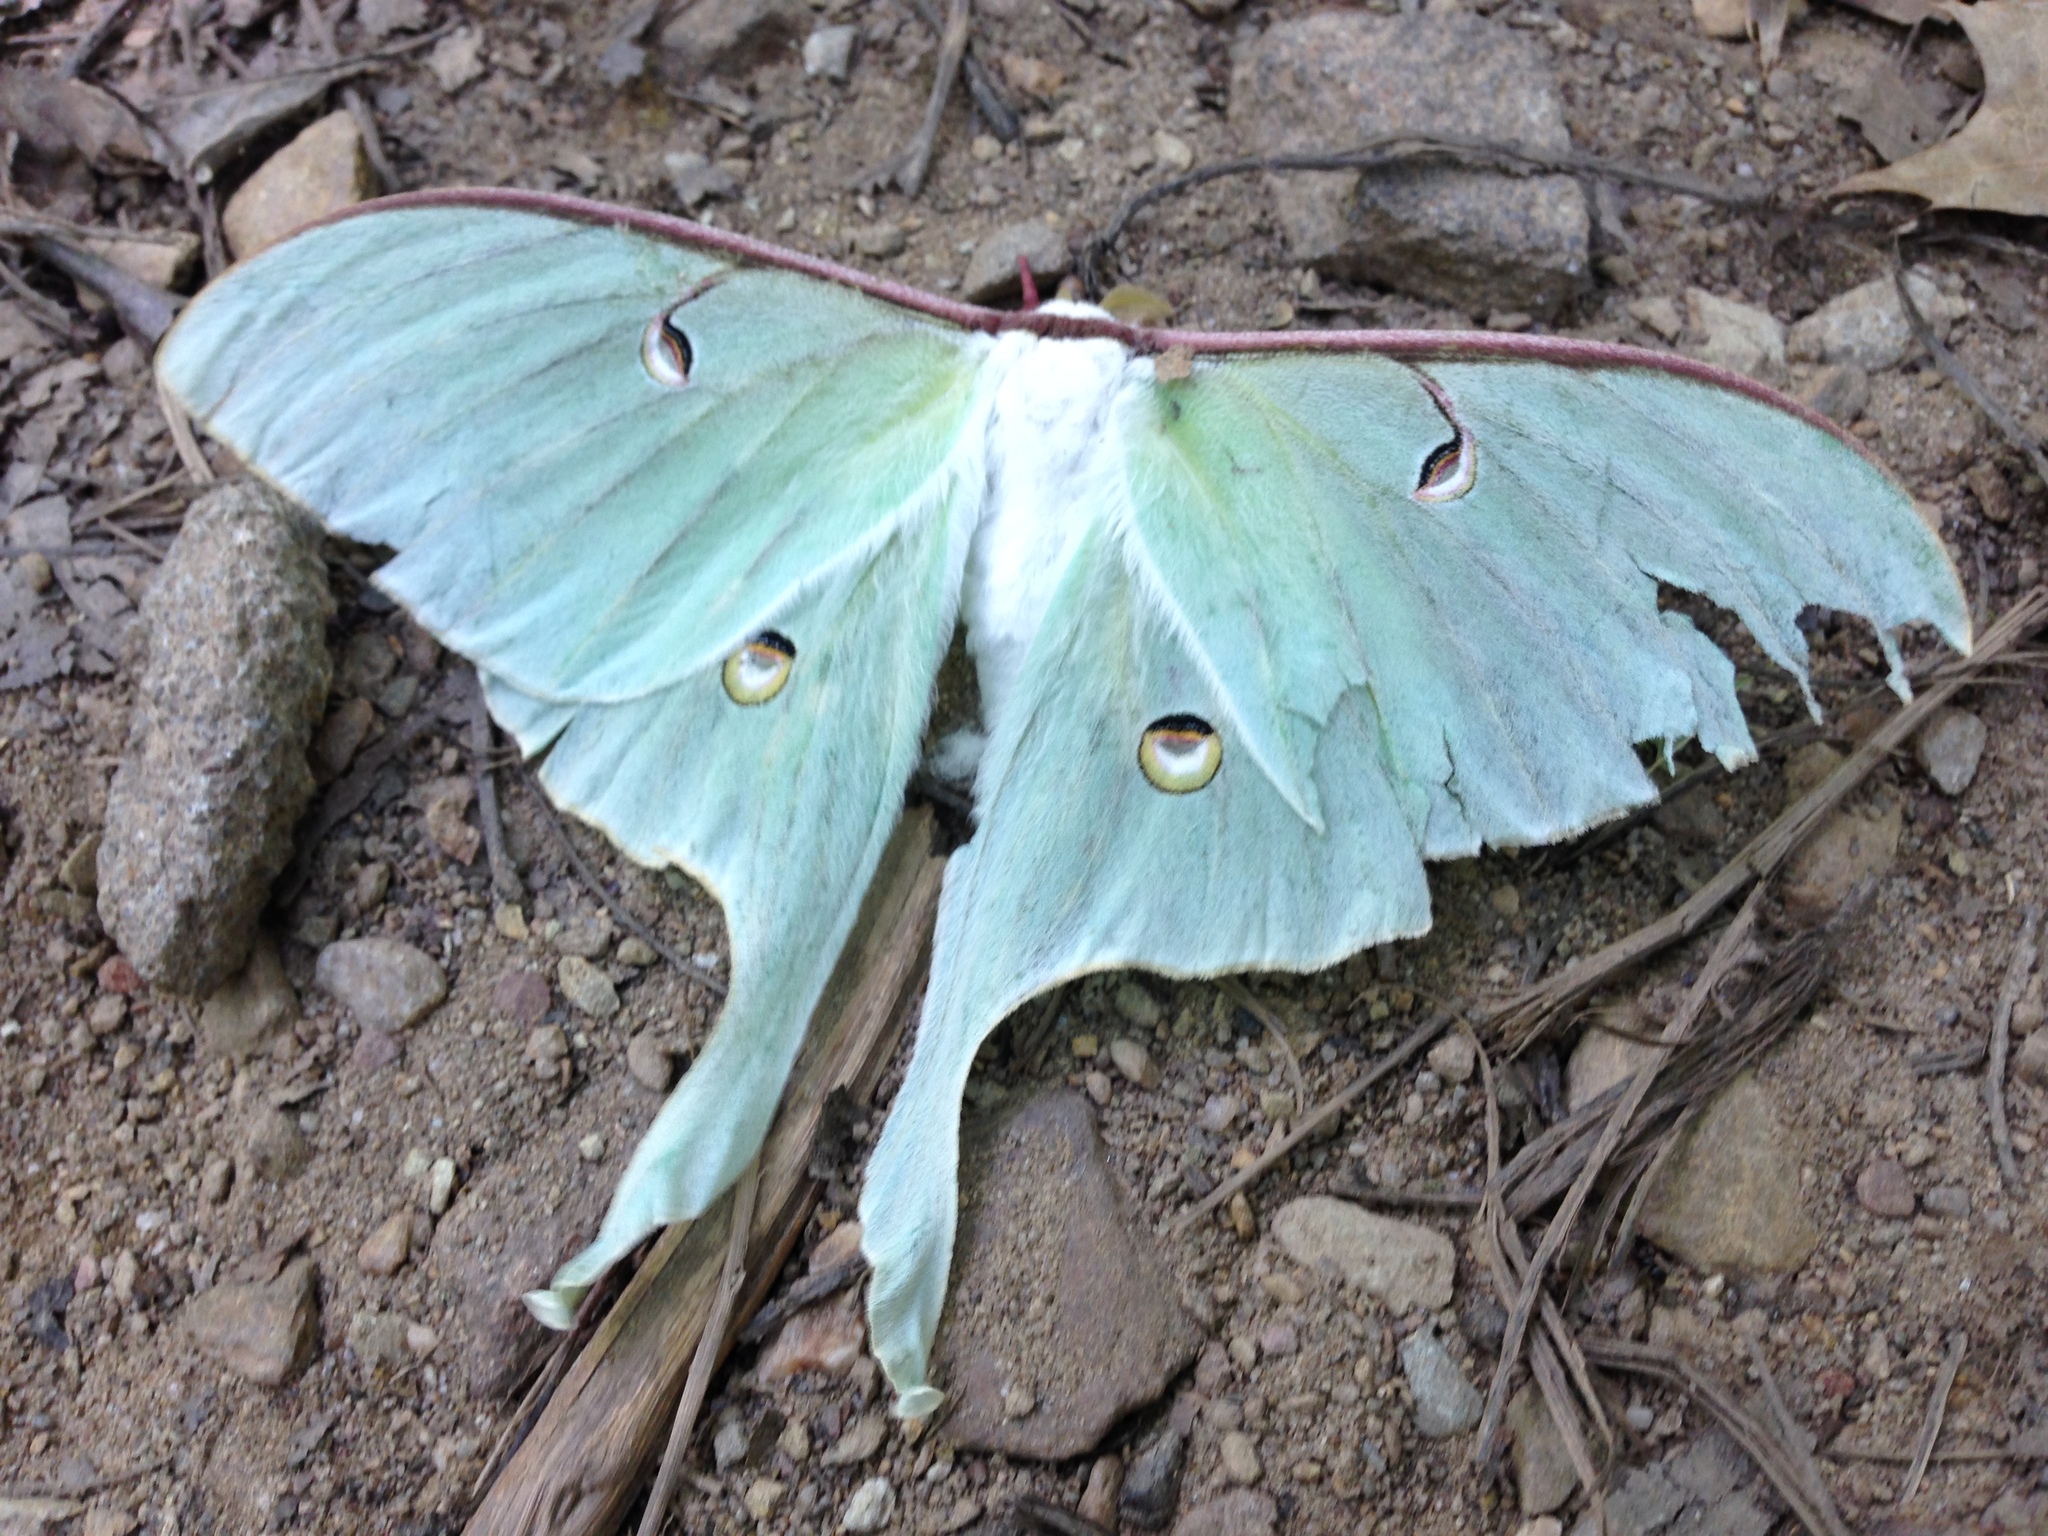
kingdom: Animalia
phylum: Arthropoda
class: Insecta
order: Lepidoptera
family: Saturniidae
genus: Actias
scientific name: Actias luna
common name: Luna moth
